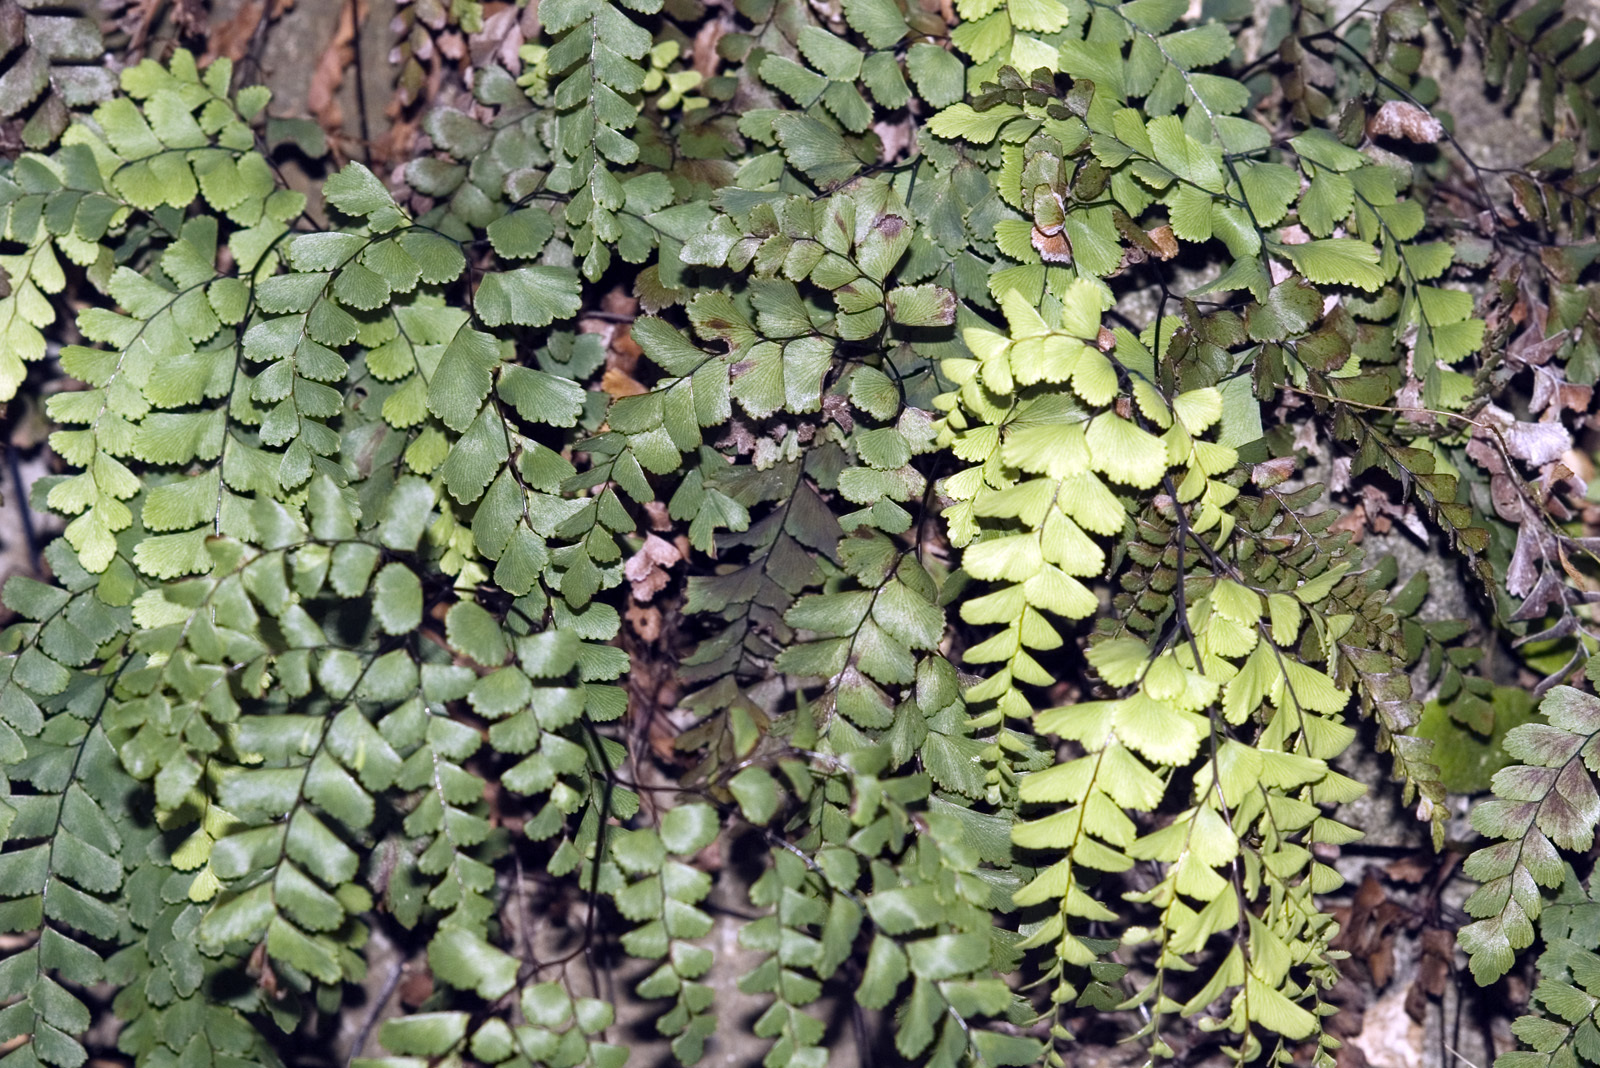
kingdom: Plantae
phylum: Tracheophyta
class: Polypodiopsida
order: Polypodiales
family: Pteridaceae
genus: Adiantum
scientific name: Adiantum cunninghamii
